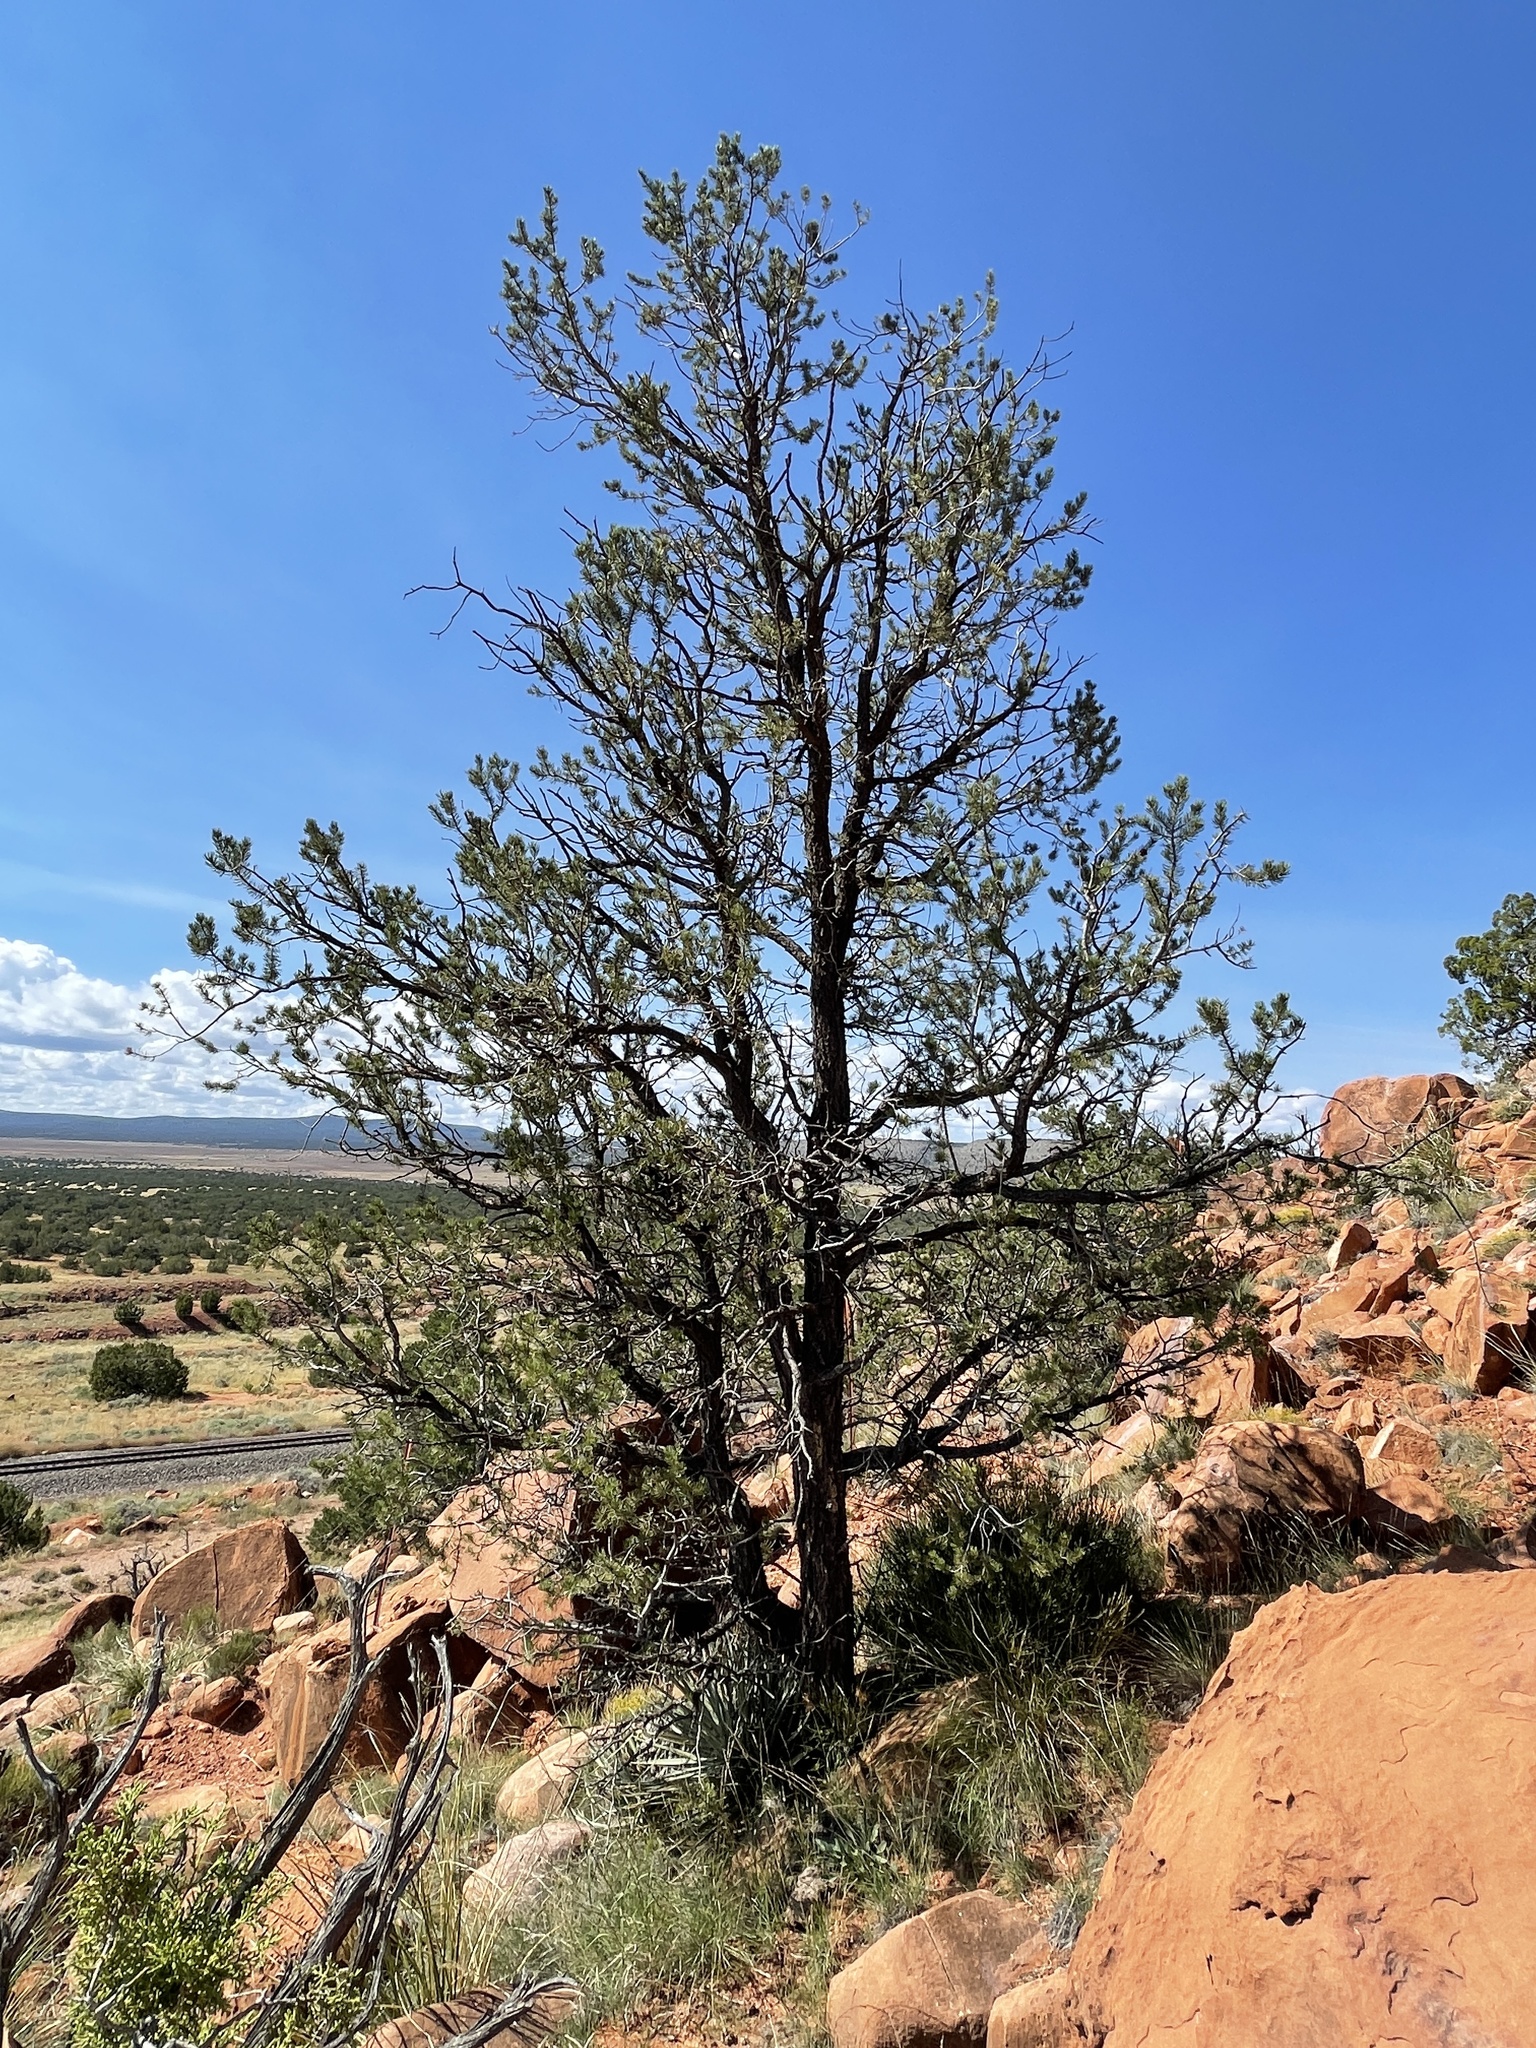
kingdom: Plantae
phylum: Tracheophyta
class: Pinopsida
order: Pinales
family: Pinaceae
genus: Pinus
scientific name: Pinus edulis
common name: Colorado pinyon
